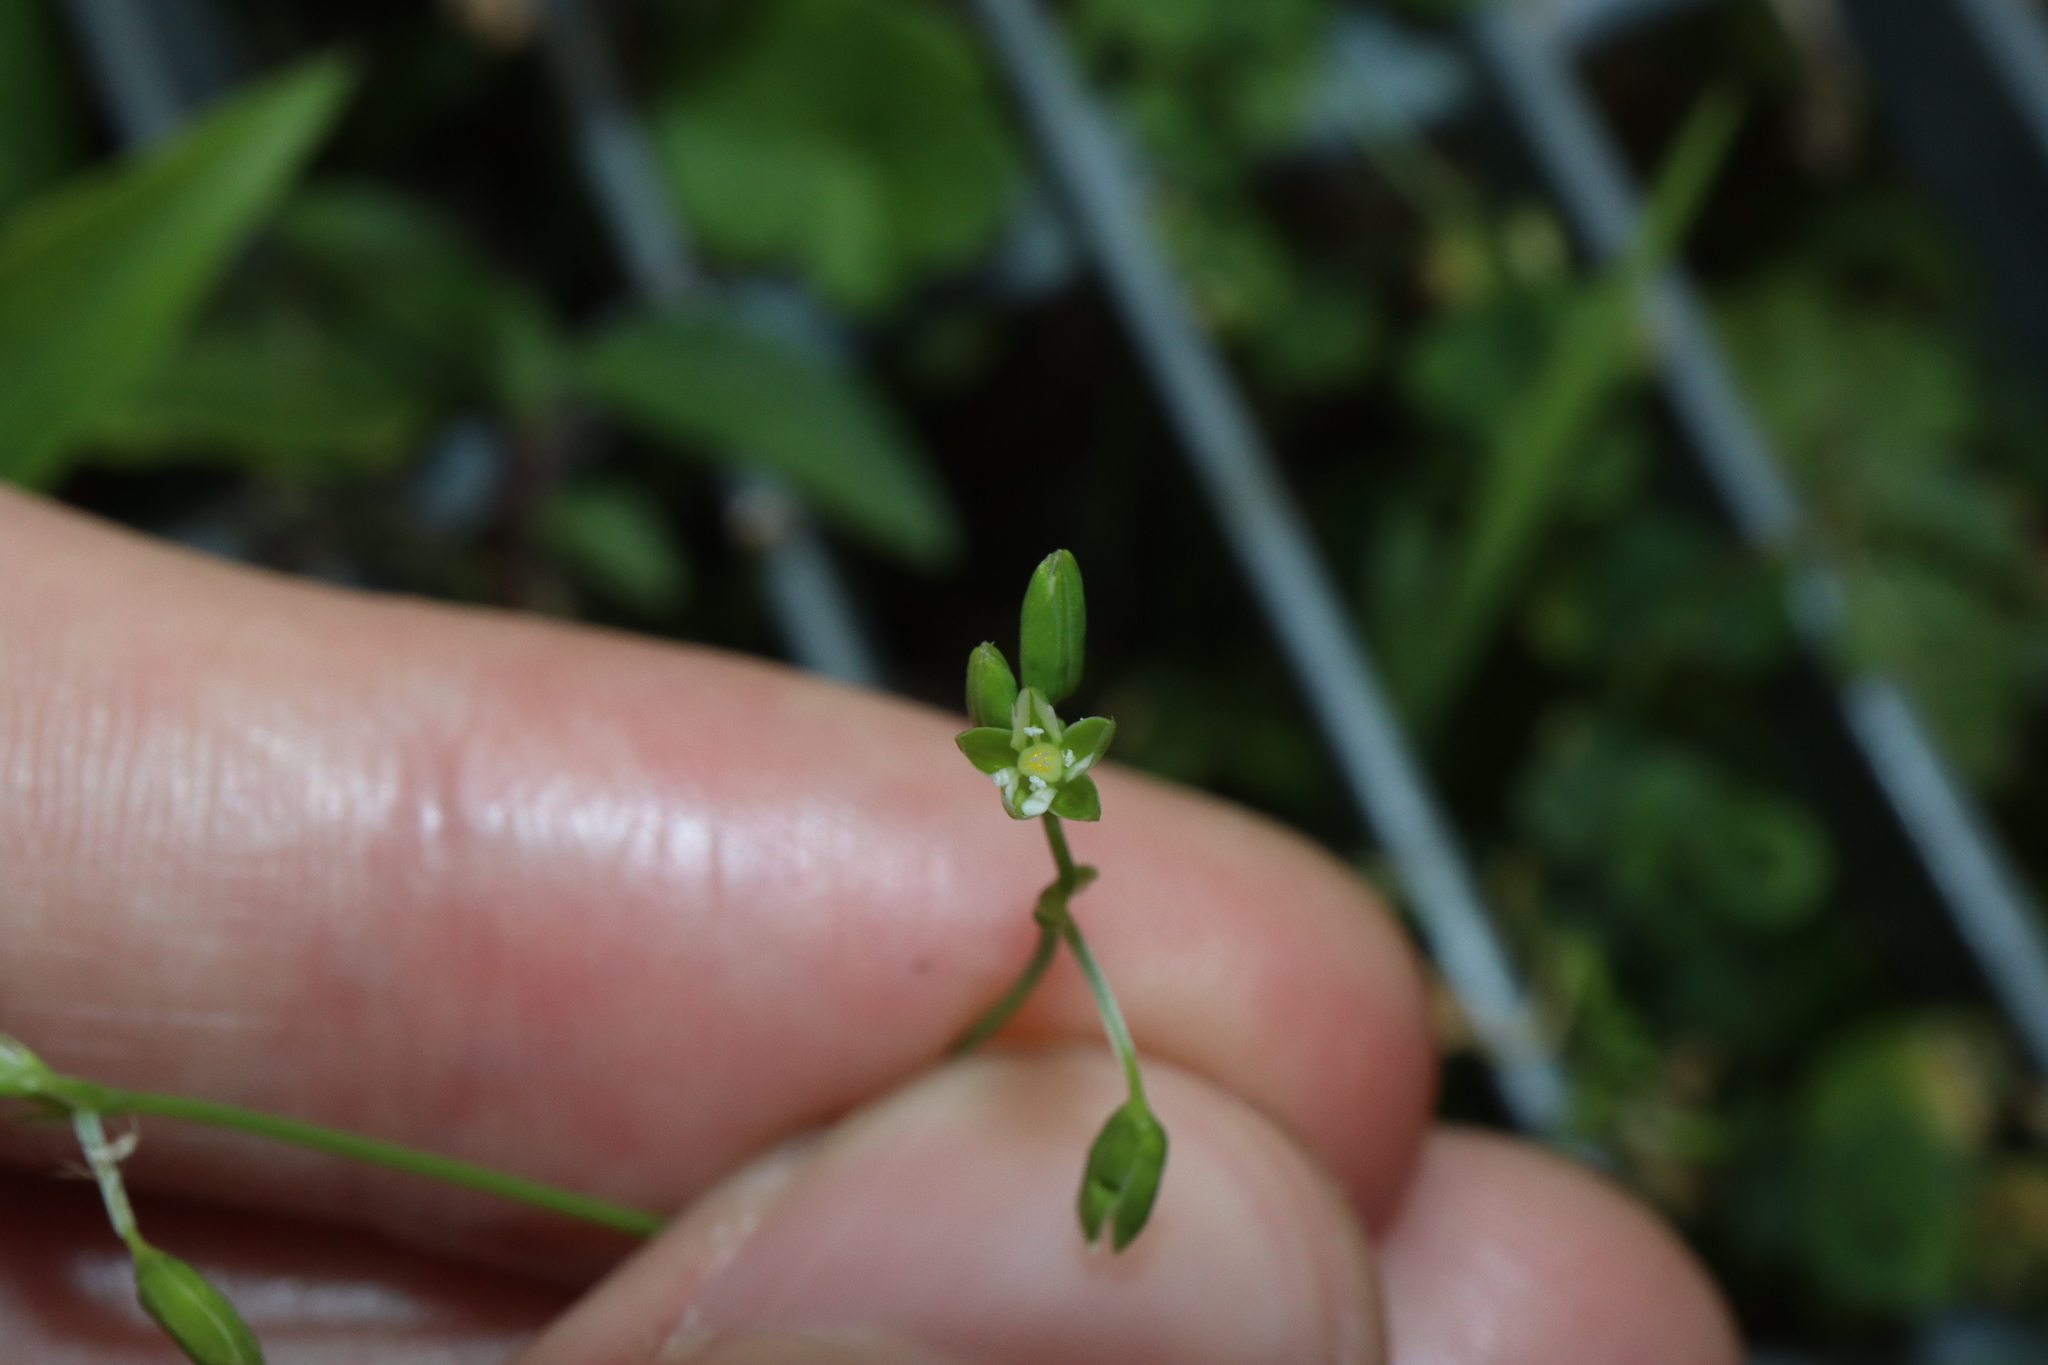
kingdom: Plantae
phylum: Tracheophyta
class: Magnoliopsida
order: Caryophyllales
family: Caryophyllaceae
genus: Drymaria
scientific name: Drymaria cordata
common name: Whitesnow
